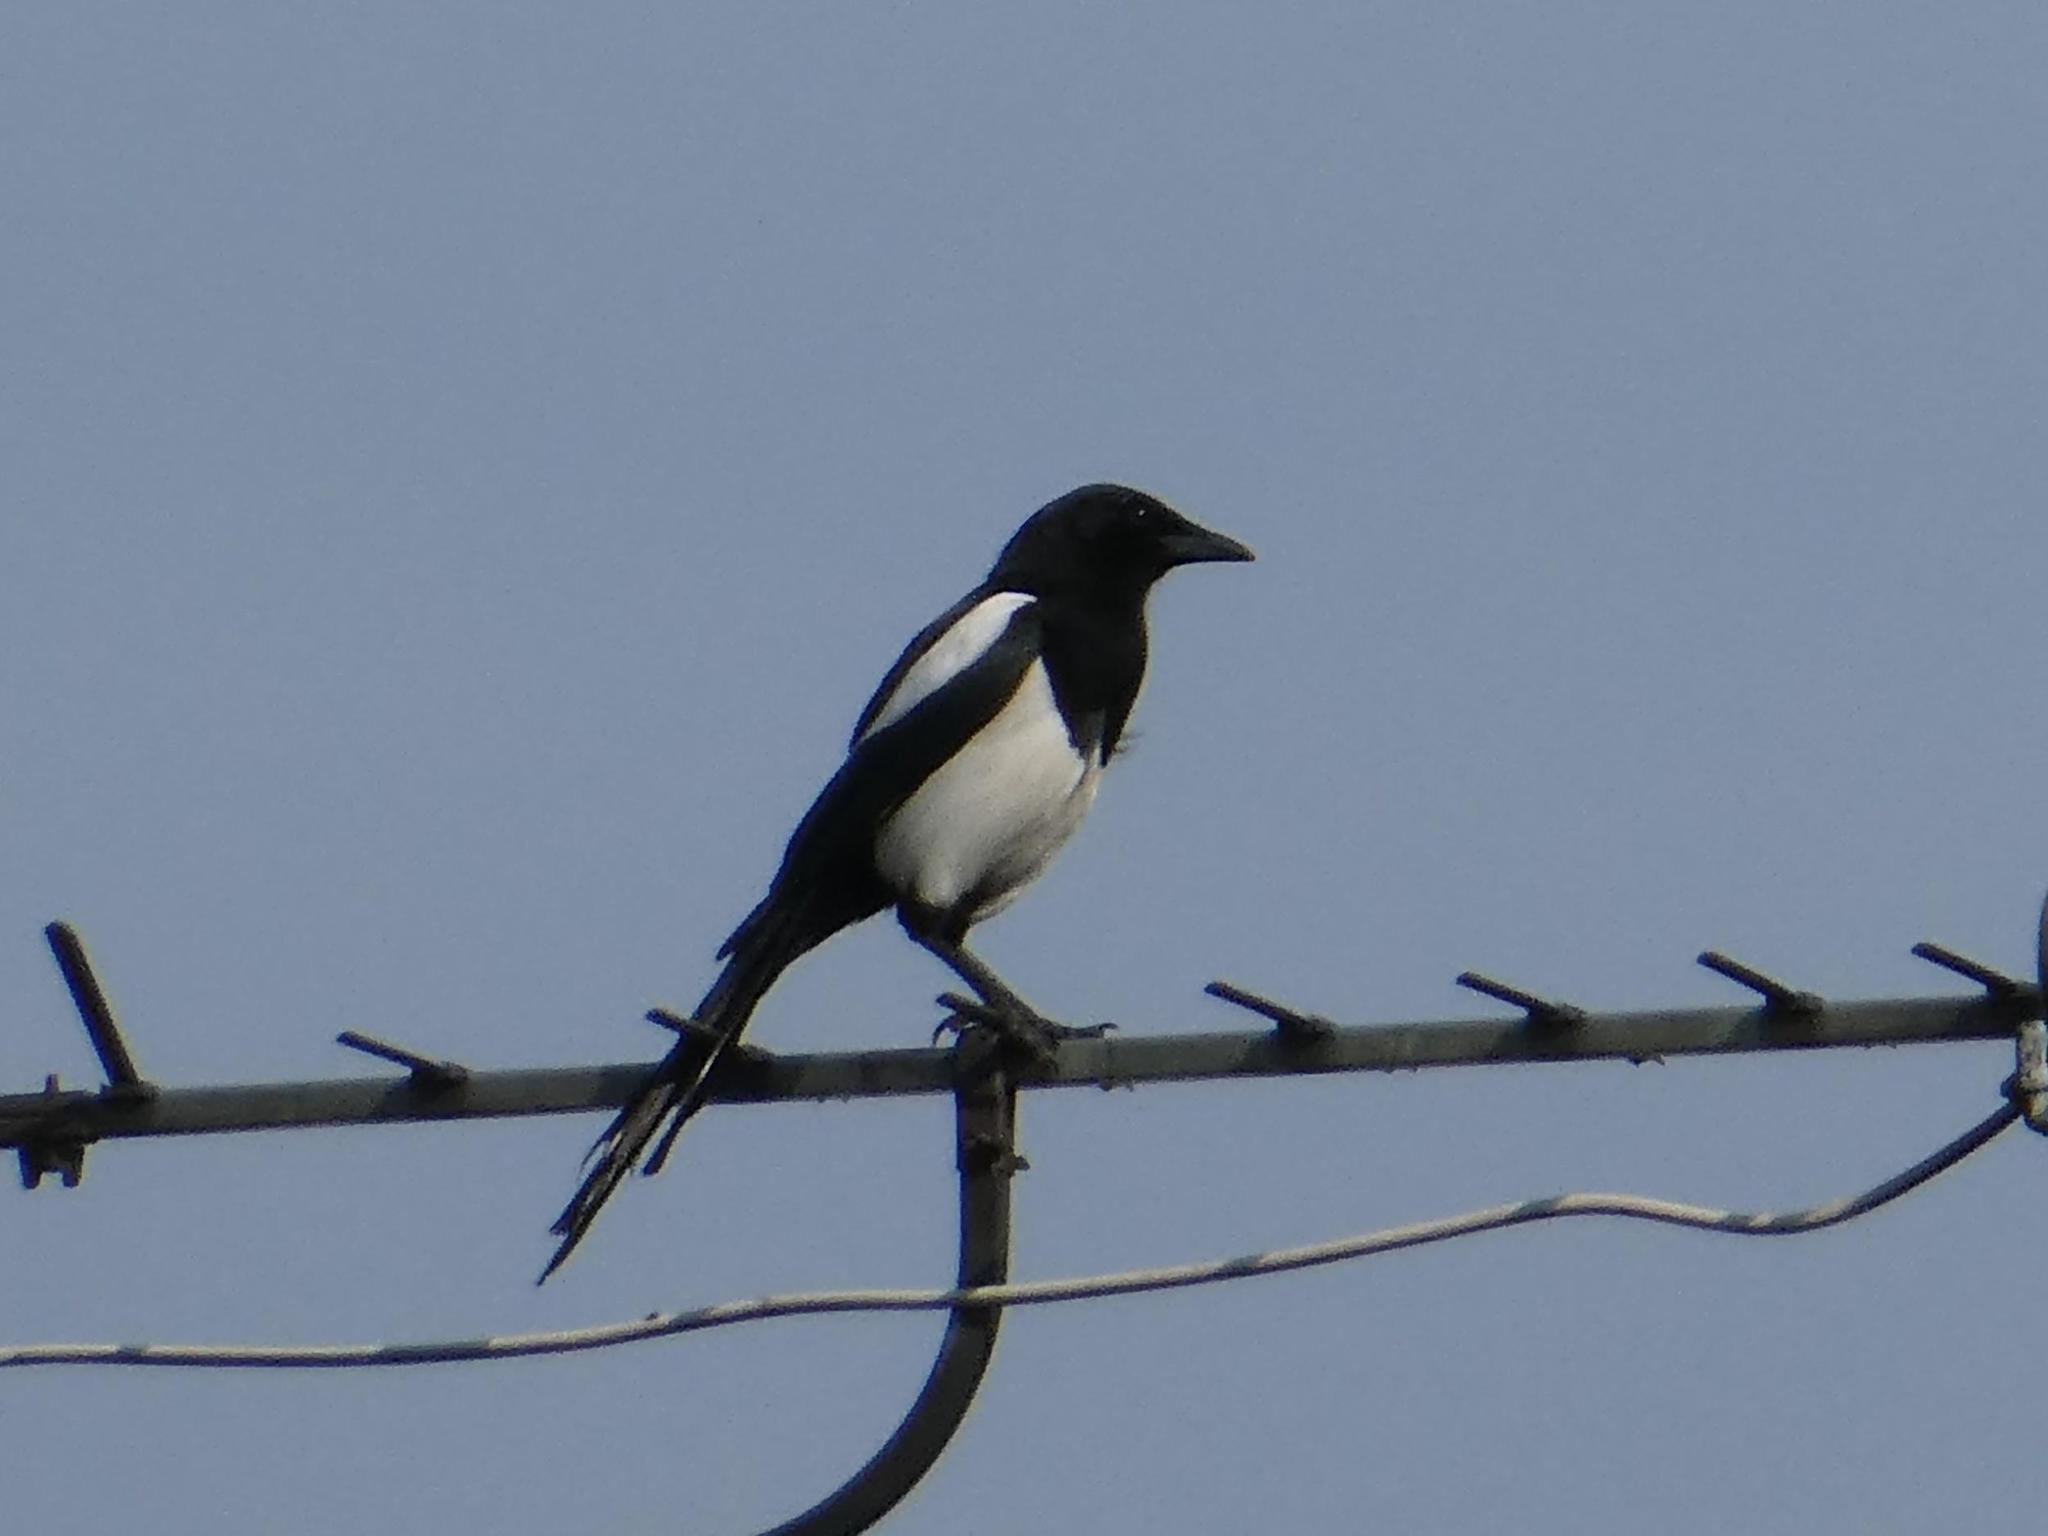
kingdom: Animalia
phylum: Chordata
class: Aves
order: Passeriformes
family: Corvidae
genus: Pica
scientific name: Pica pica
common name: Eurasian magpie
